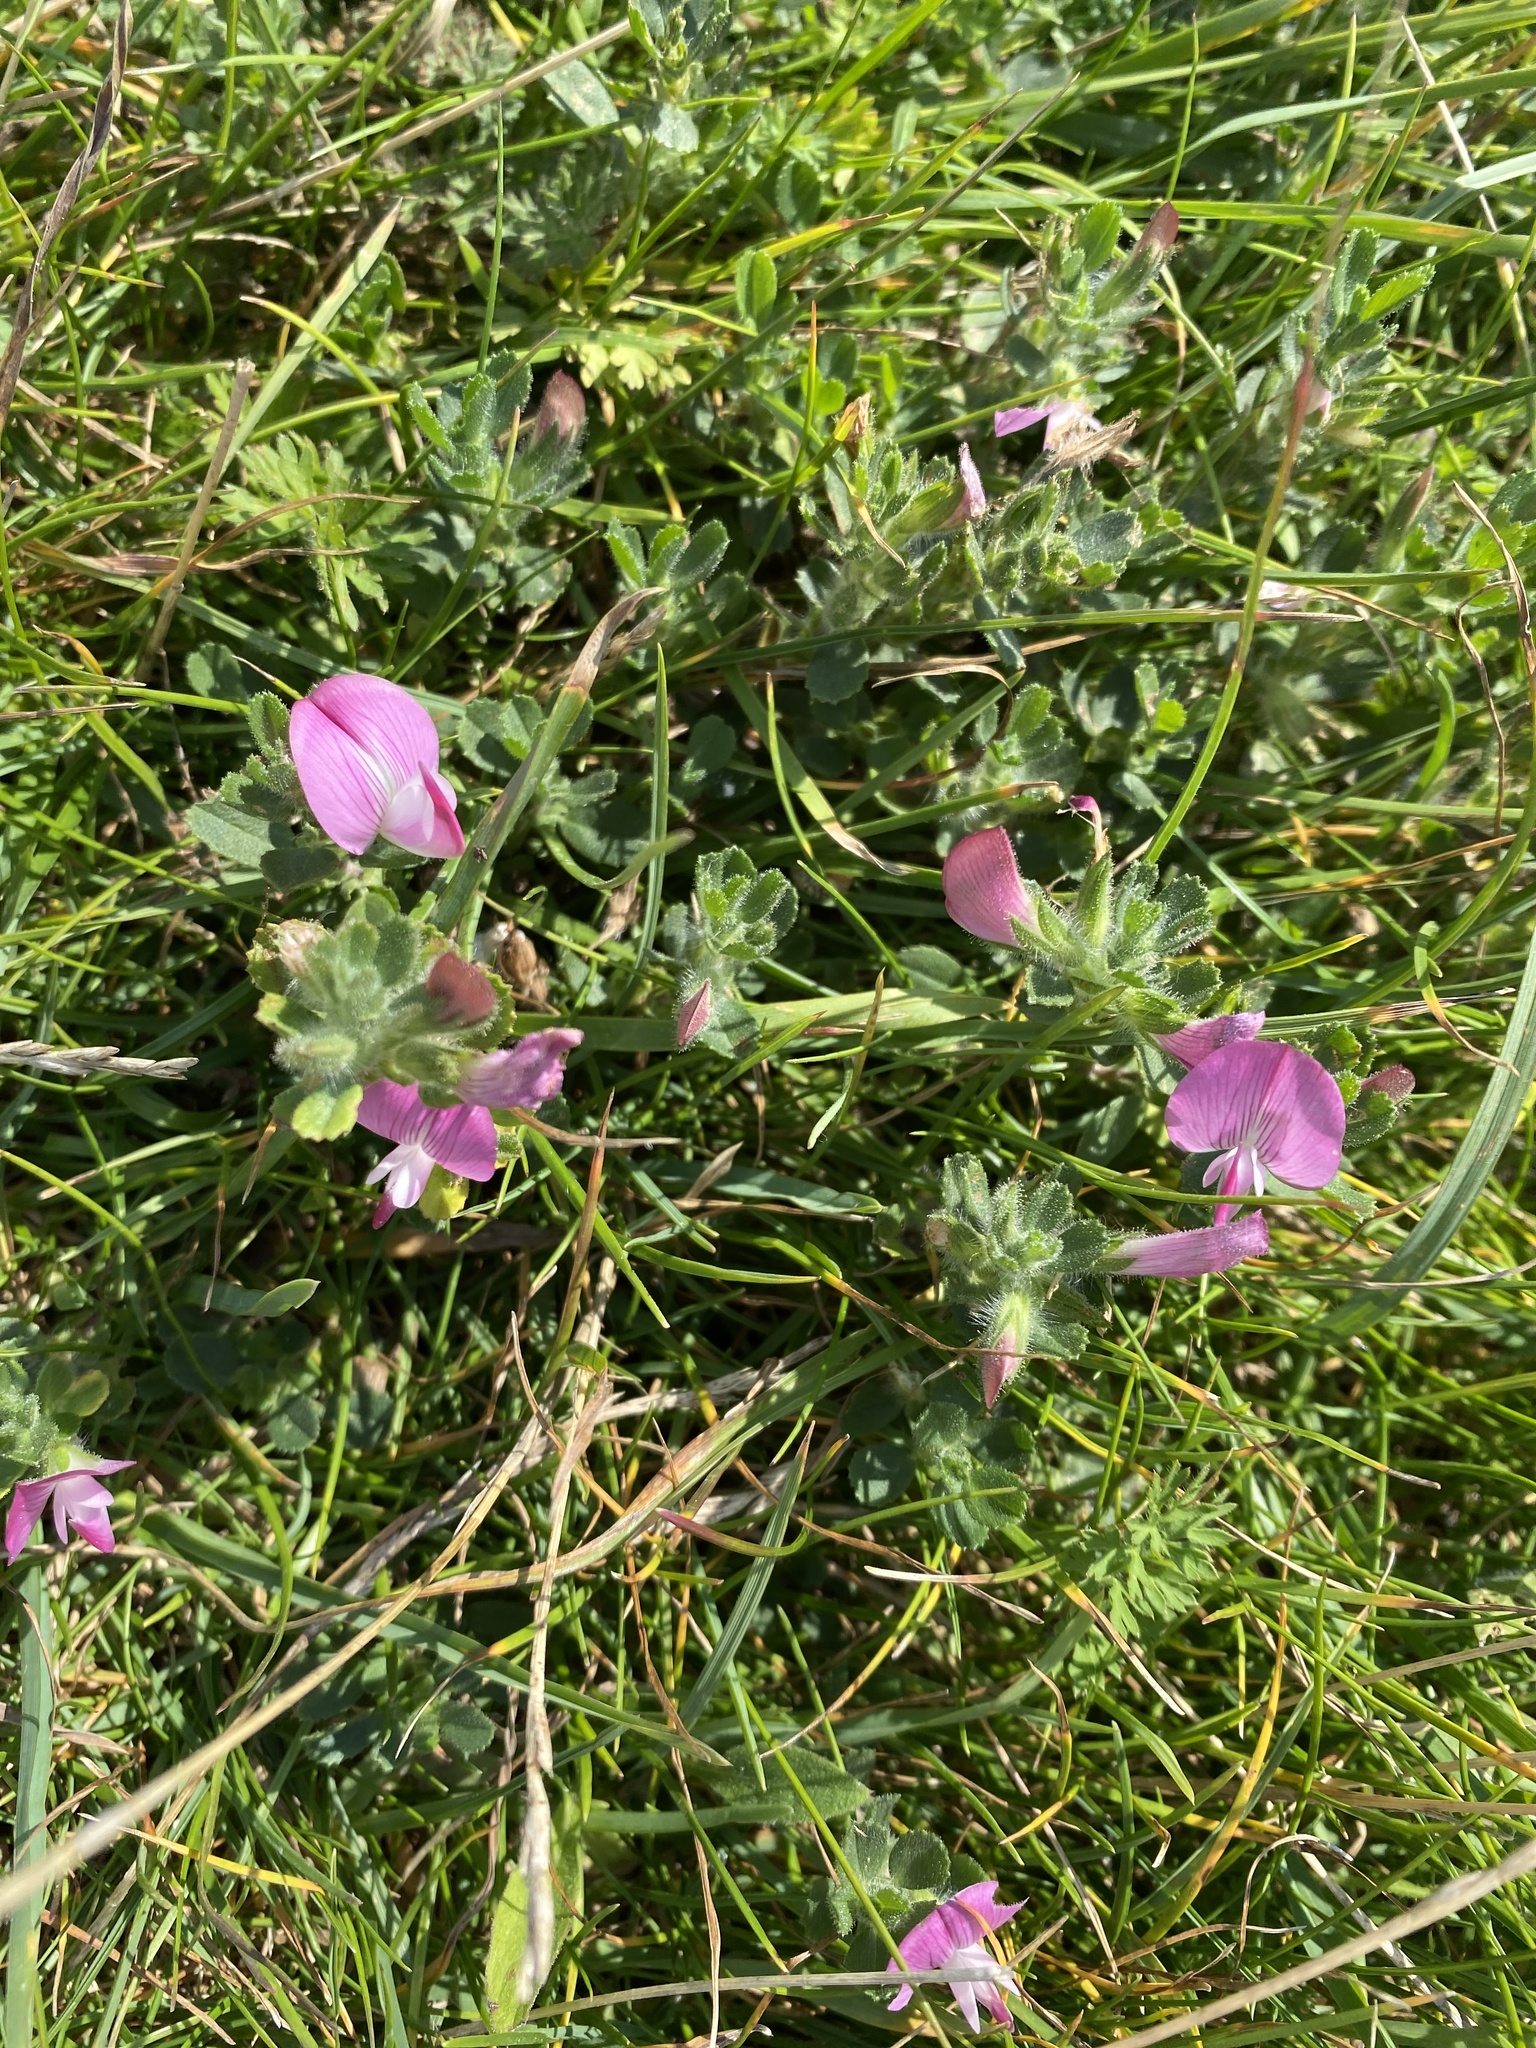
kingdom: Plantae
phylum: Tracheophyta
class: Magnoliopsida
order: Fabales
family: Fabaceae
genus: Ononis
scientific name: Ononis spinosa
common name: Spiny restharrow
